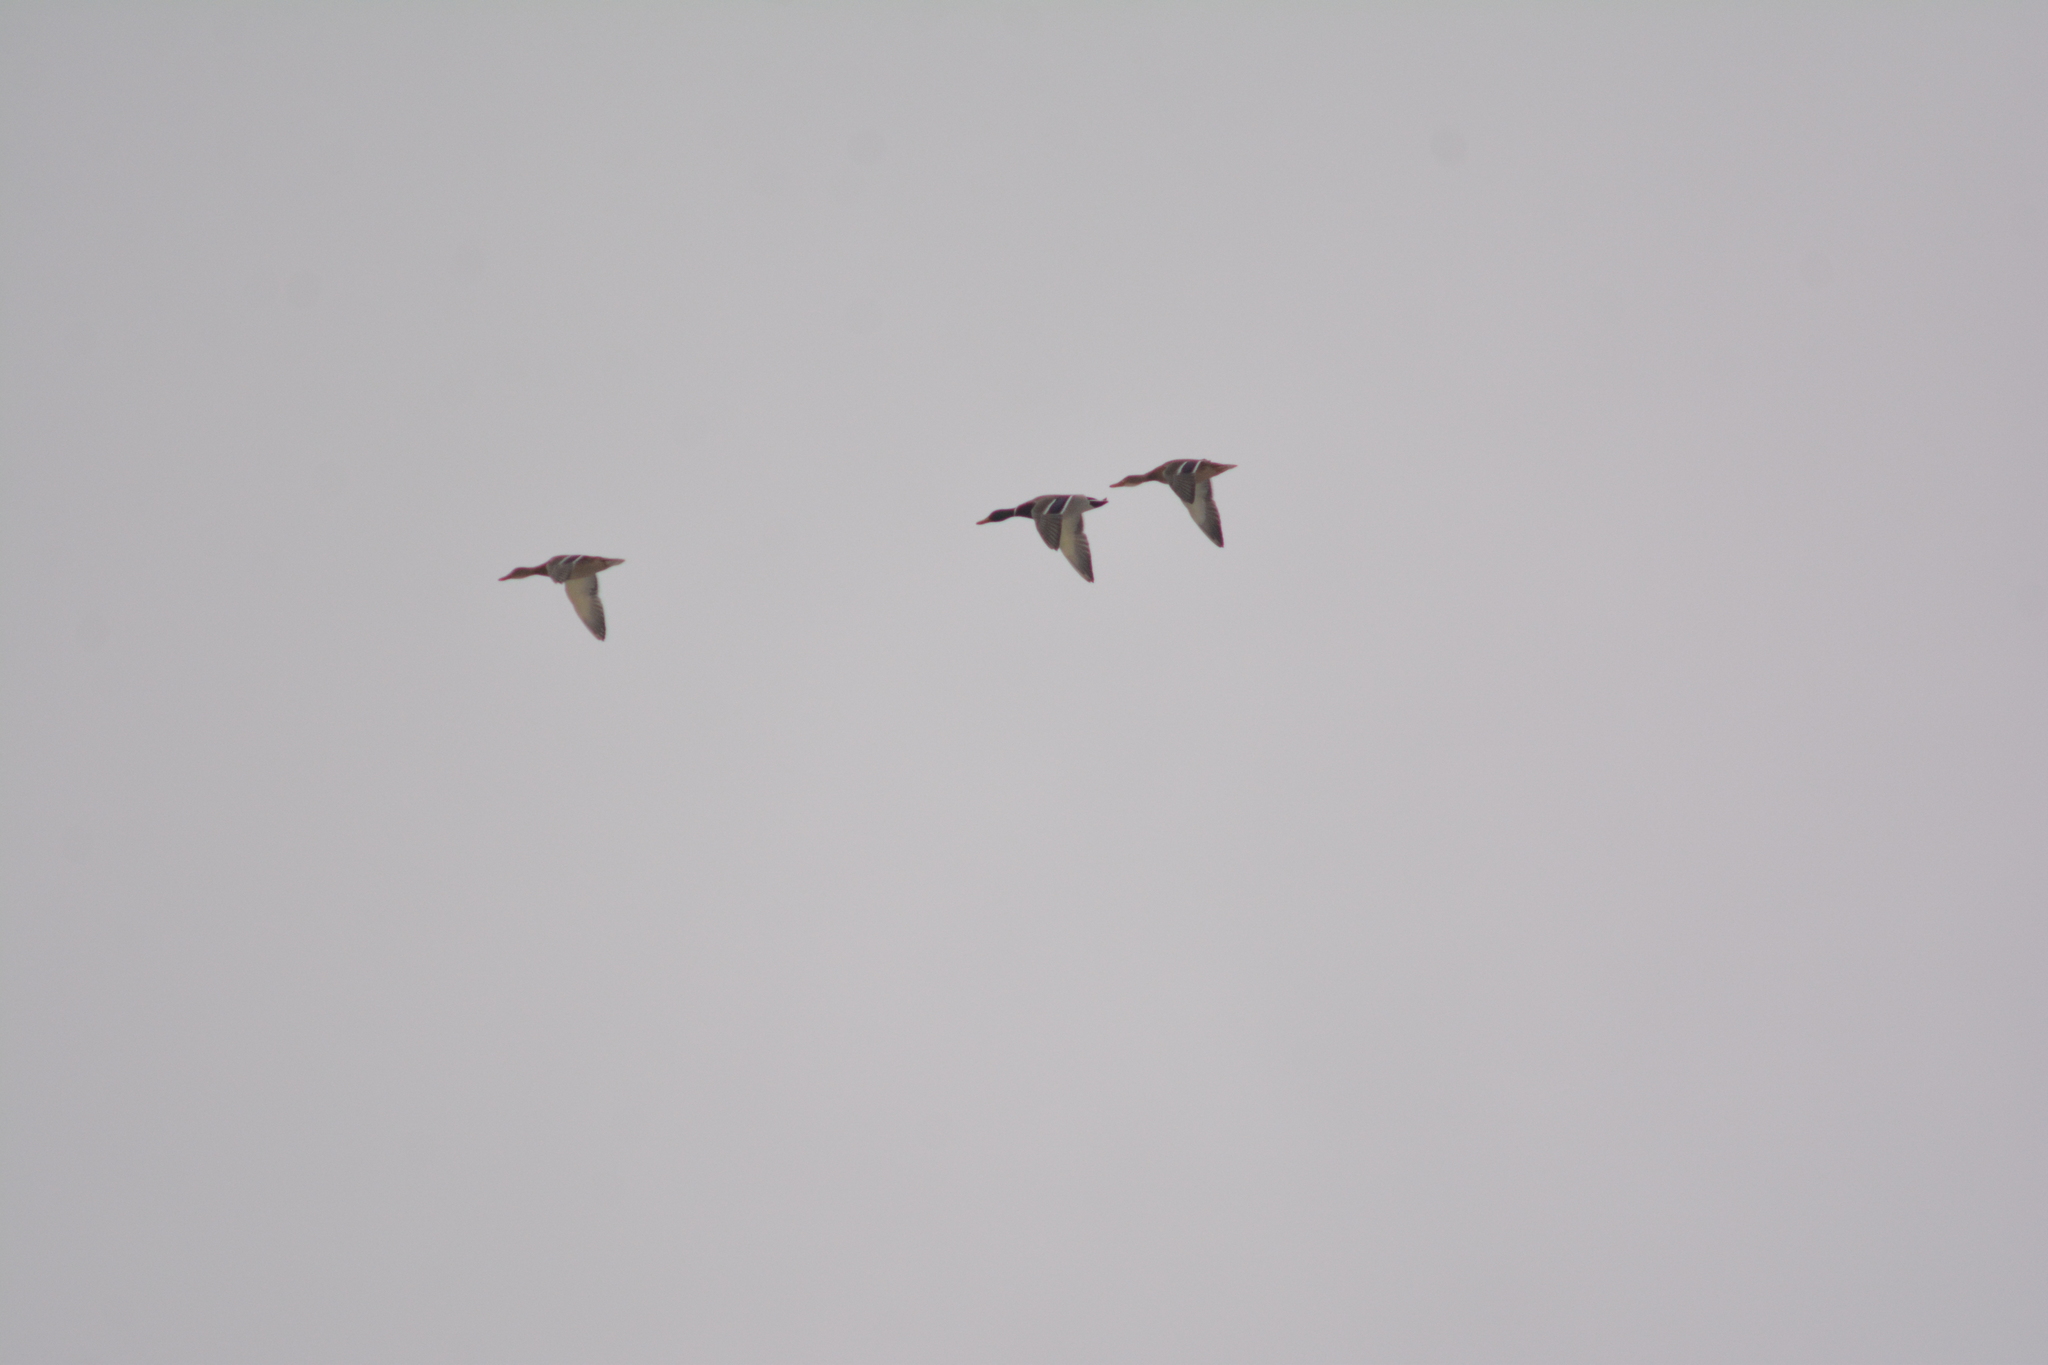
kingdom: Animalia
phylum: Chordata
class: Aves
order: Anseriformes
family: Anatidae
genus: Anas
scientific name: Anas platyrhynchos
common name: Mallard
